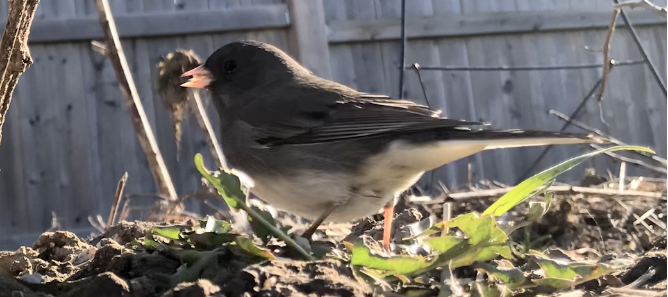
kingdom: Animalia
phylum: Chordata
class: Aves
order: Passeriformes
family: Passerellidae
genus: Junco
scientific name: Junco hyemalis
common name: Dark-eyed junco
